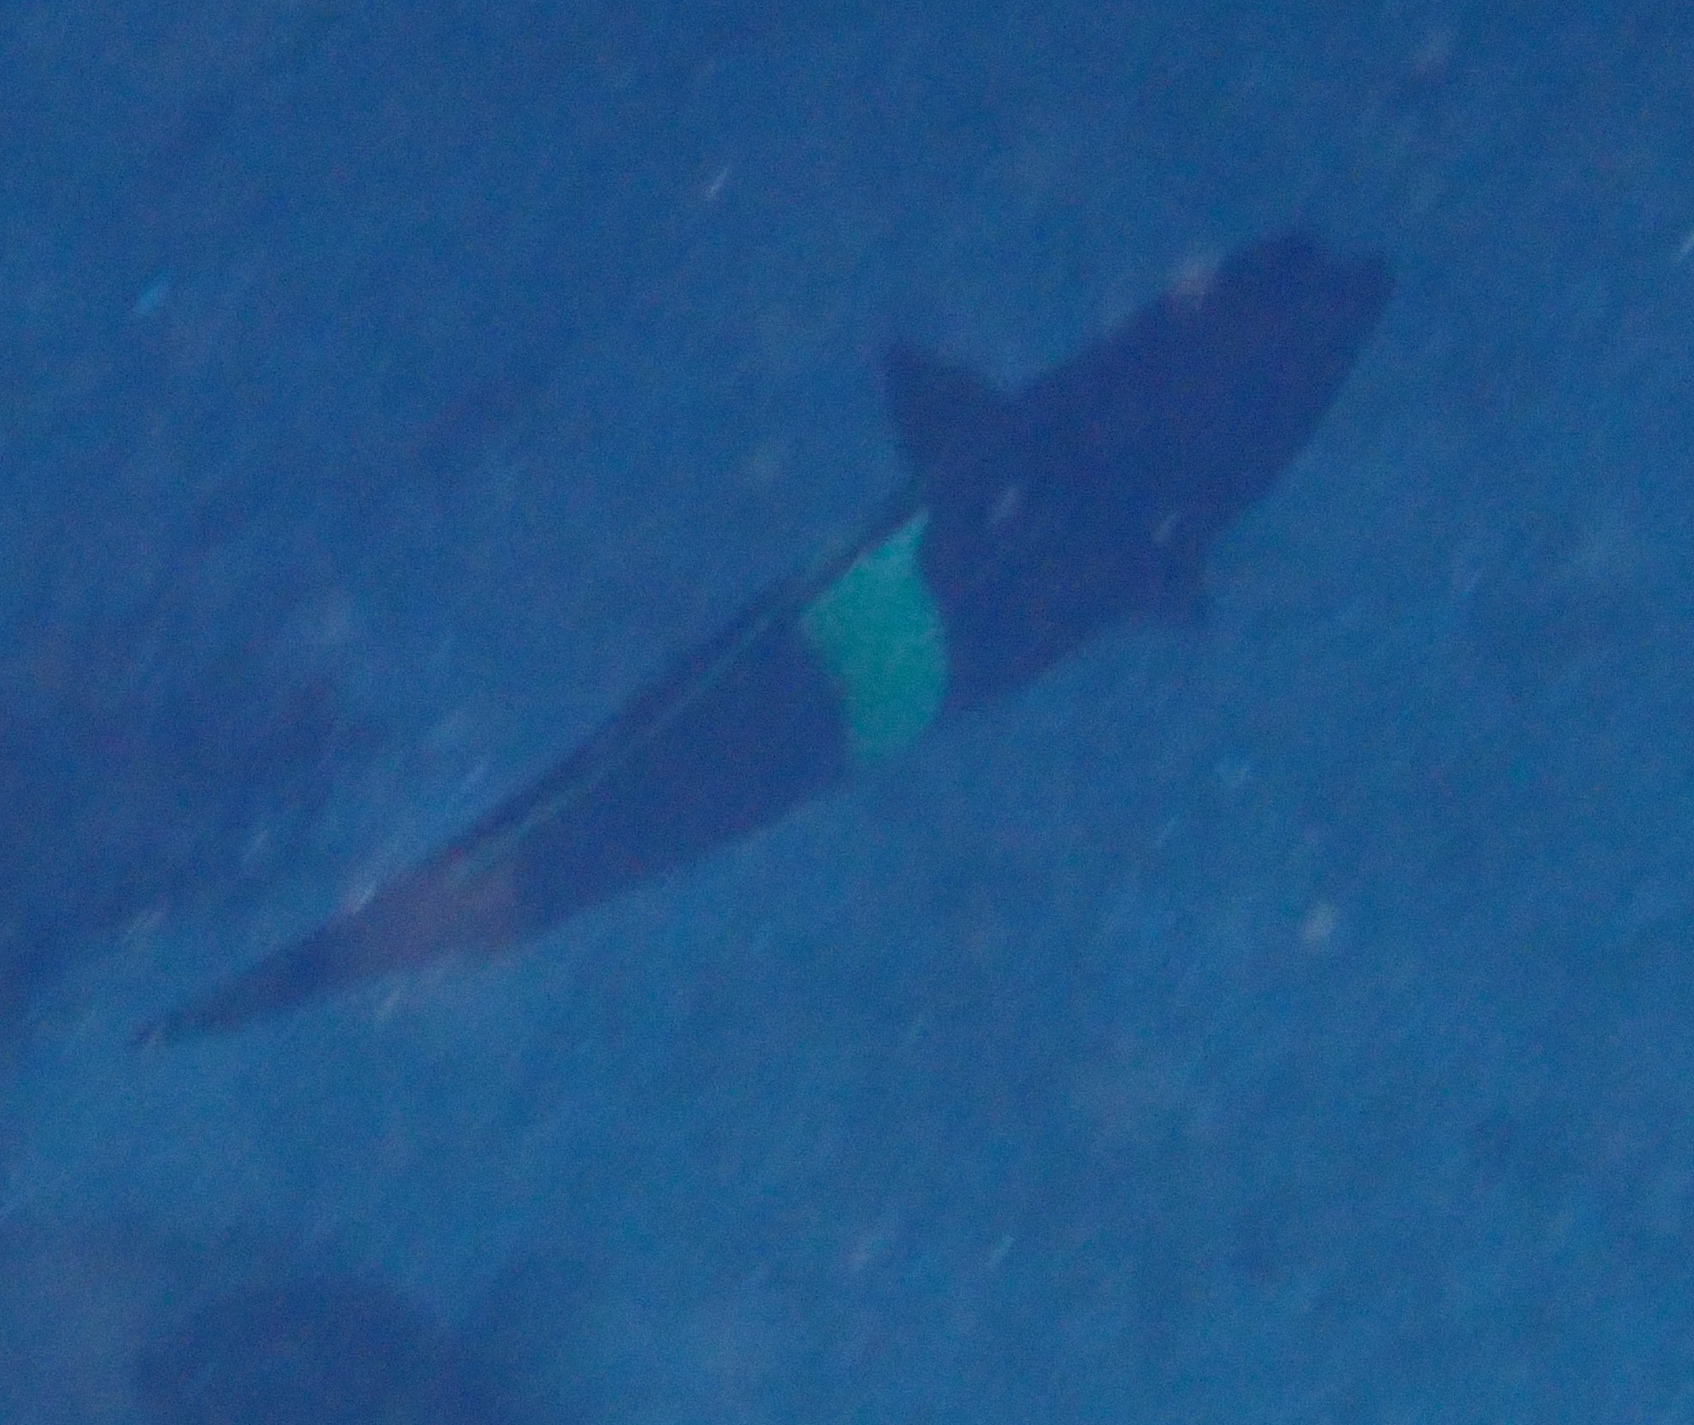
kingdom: Animalia
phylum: Chordata
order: Perciformes
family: Labridae
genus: Coris
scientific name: Coris aygula
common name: Clown coris
